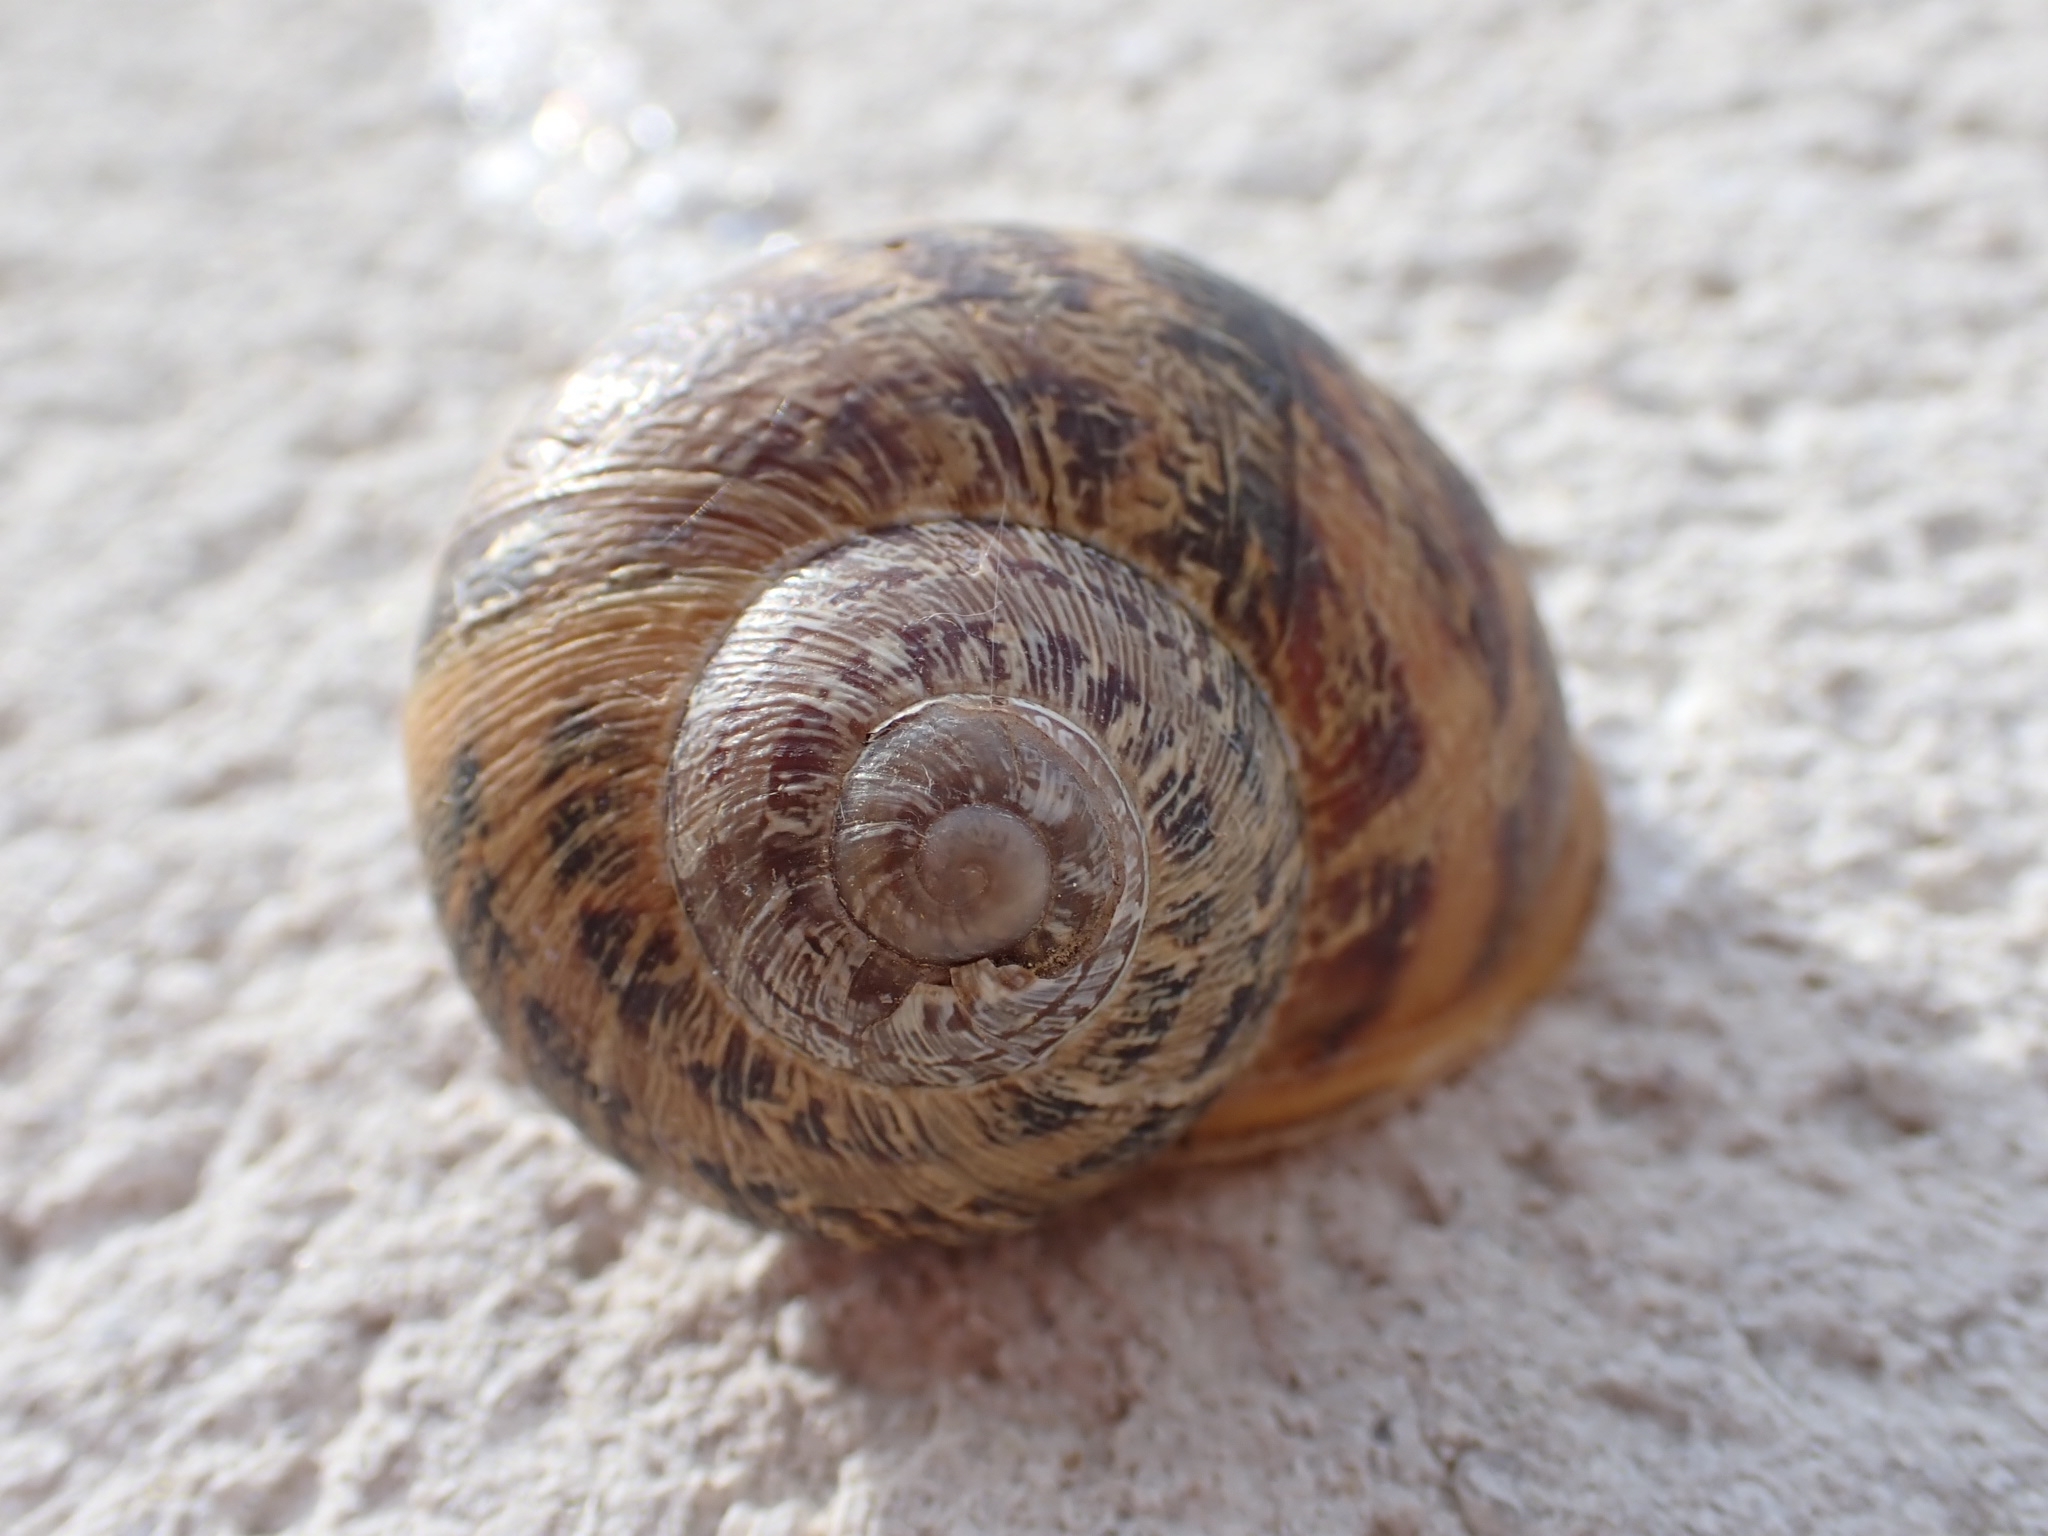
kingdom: Animalia
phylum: Mollusca
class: Gastropoda
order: Stylommatophora
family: Helicidae
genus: Cornu
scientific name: Cornu aspersum
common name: Brown garden snail
